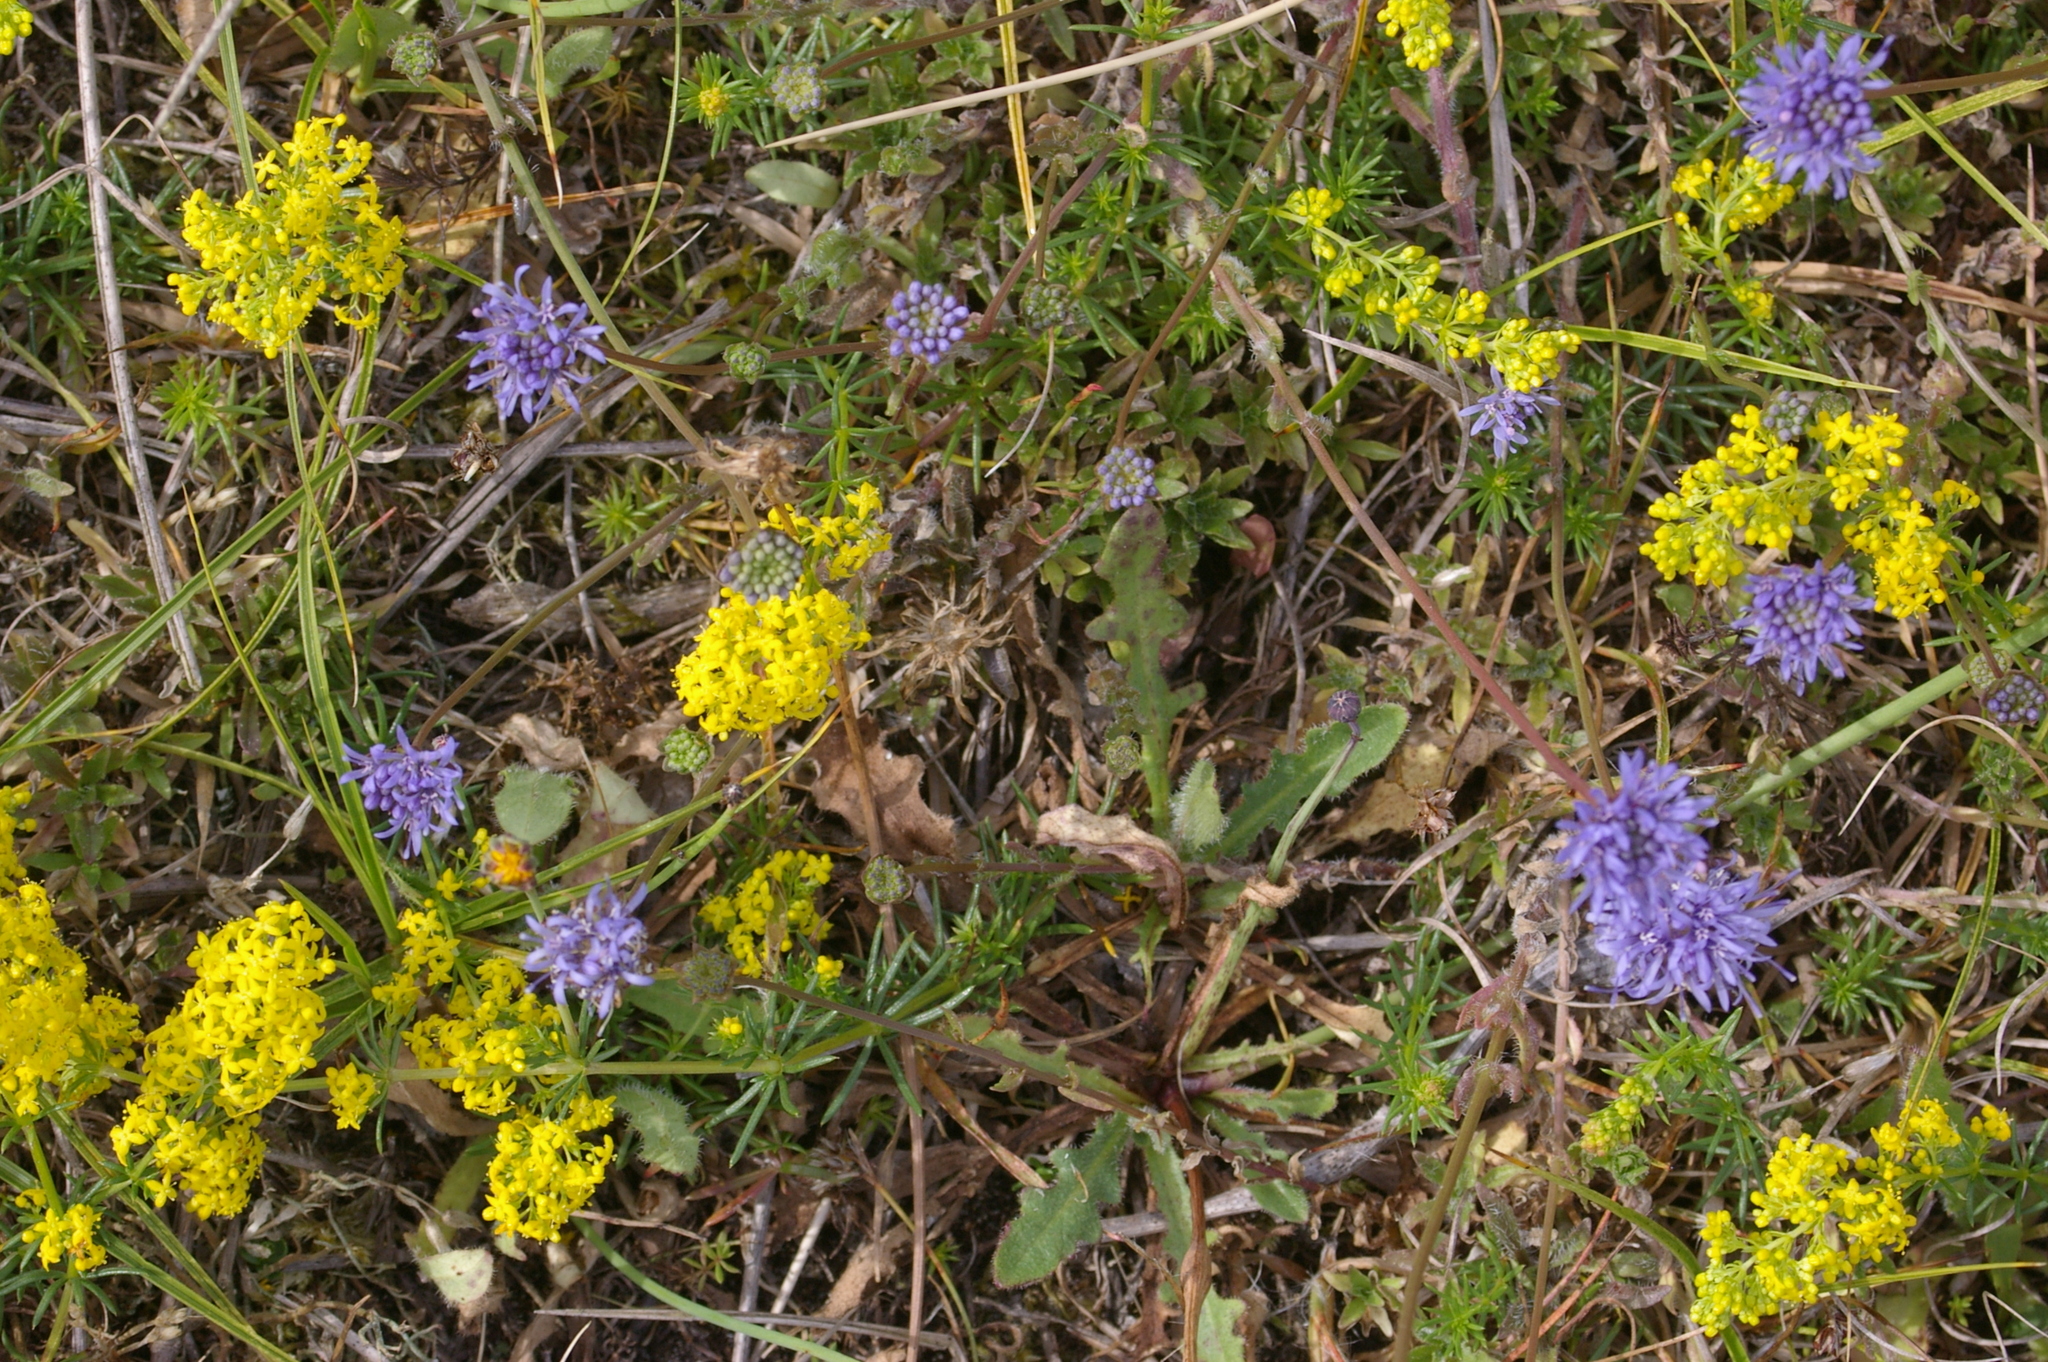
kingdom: Plantae
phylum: Tracheophyta
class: Magnoliopsida
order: Gentianales
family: Rubiaceae
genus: Galium
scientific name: Galium verum
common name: Lady's bedstraw
